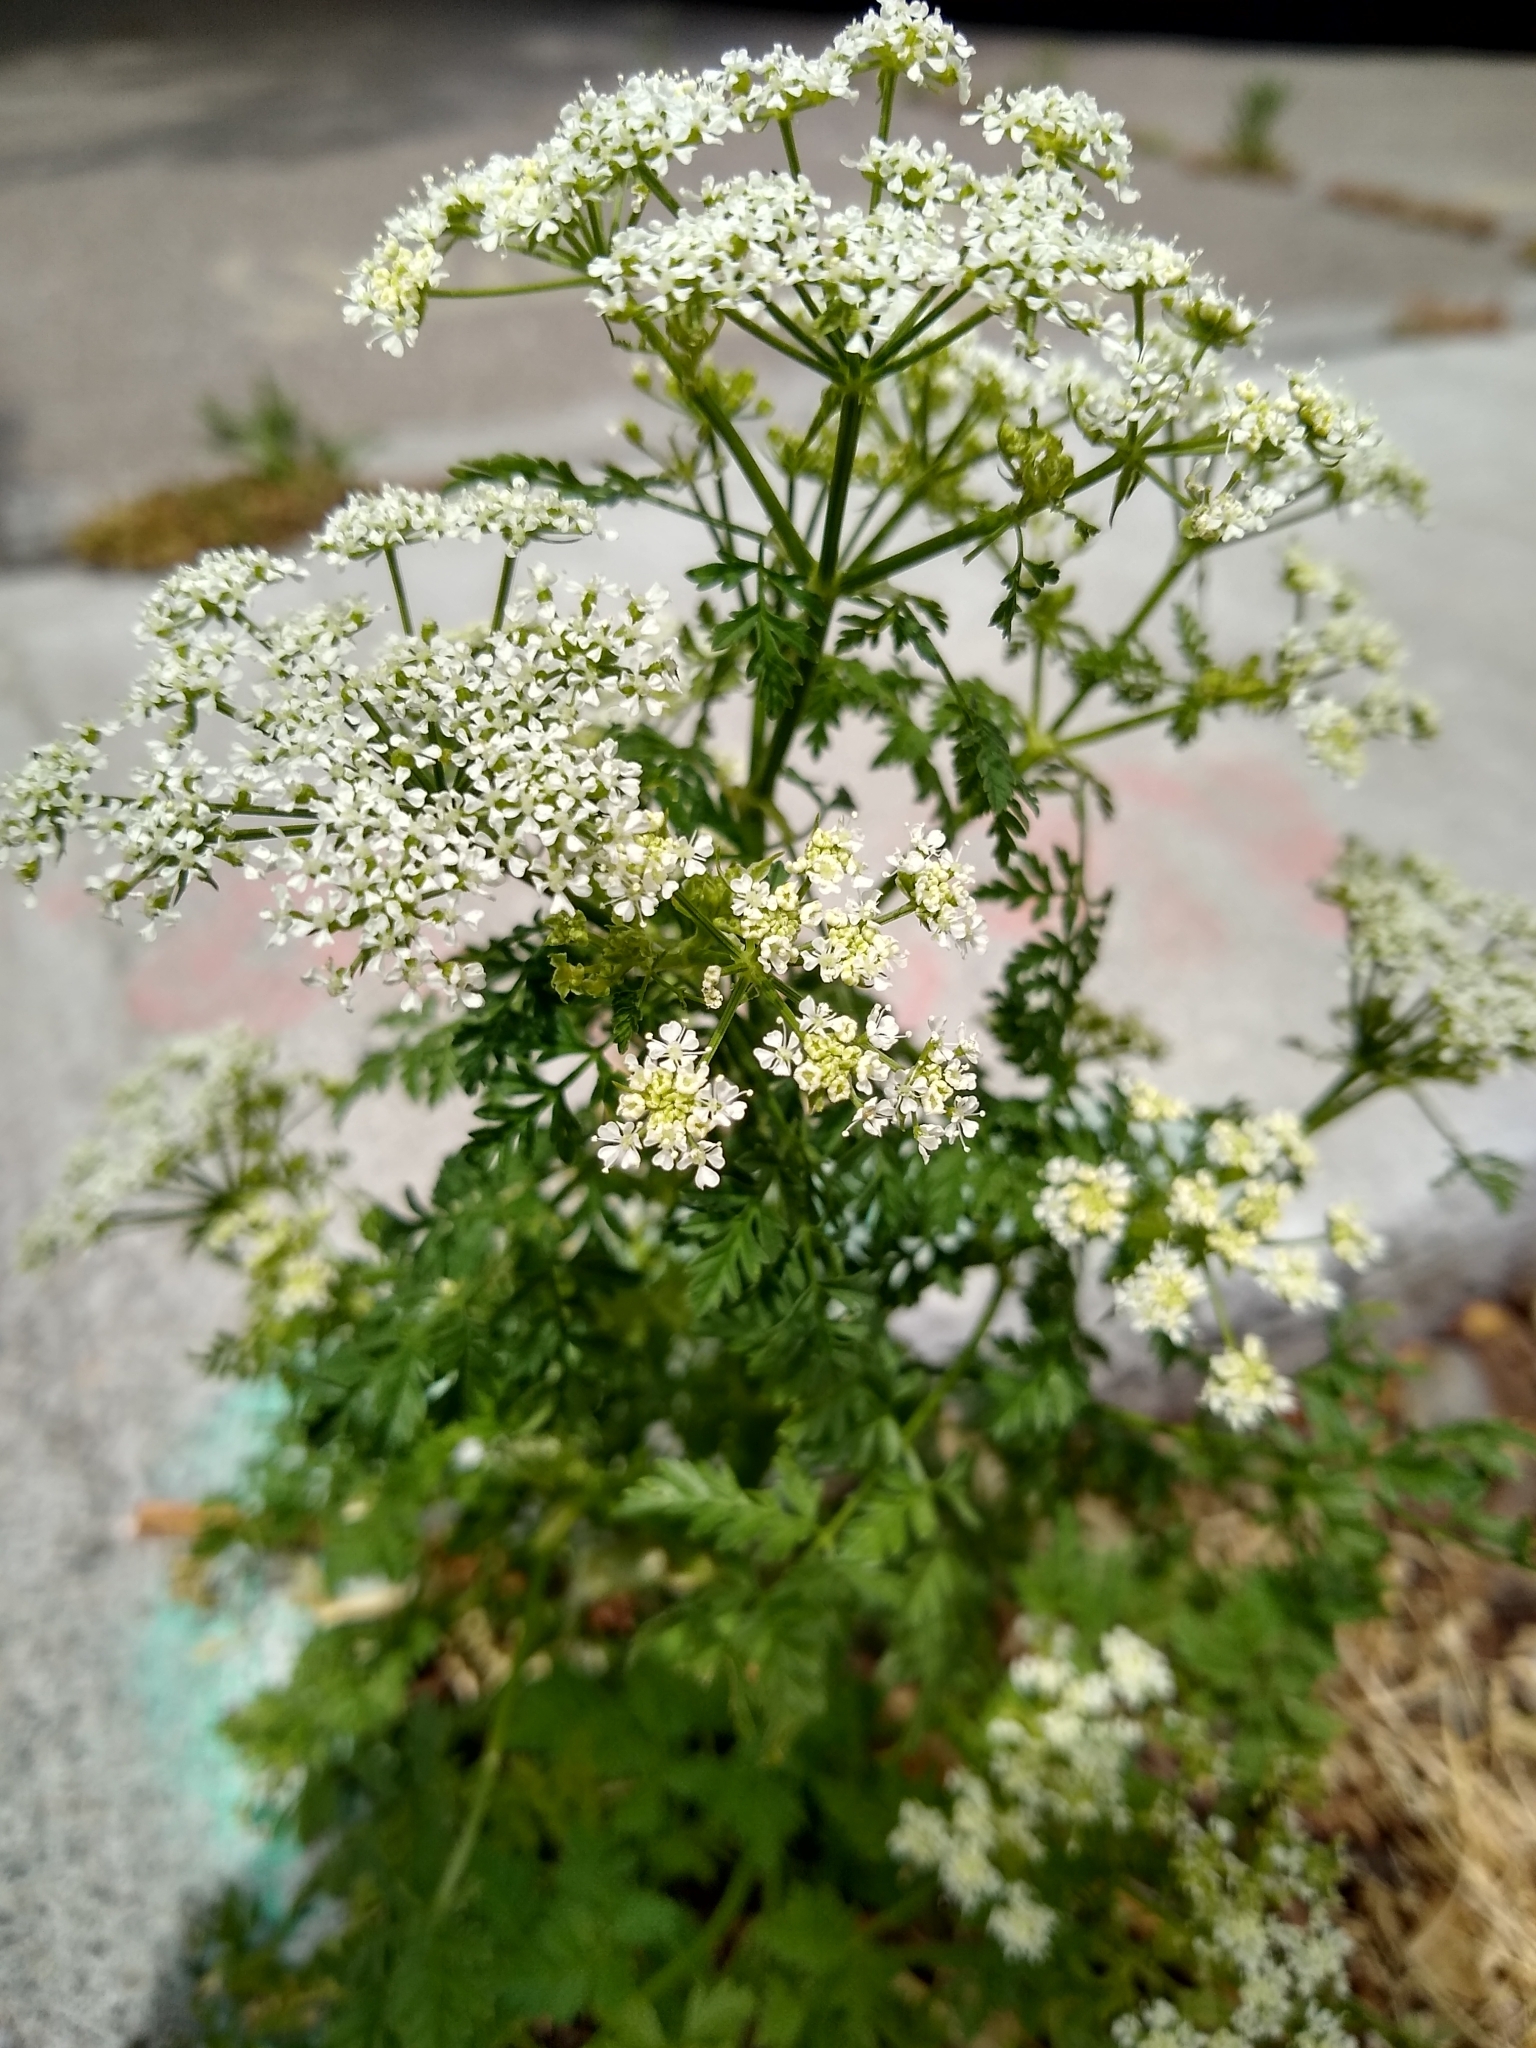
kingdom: Plantae
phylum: Tracheophyta
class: Magnoliopsida
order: Apiales
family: Apiaceae
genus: Conium
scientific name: Conium maculatum
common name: Hemlock
